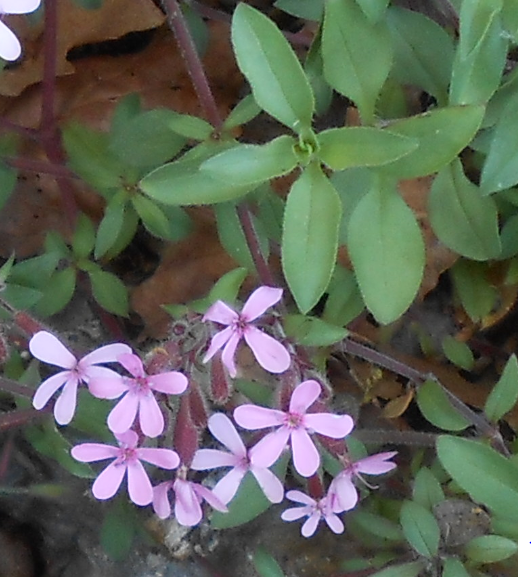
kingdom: Plantae
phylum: Tracheophyta
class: Magnoliopsida
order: Caryophyllales
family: Caryophyllaceae
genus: Saponaria
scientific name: Saponaria ocymoides
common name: Rock soapwort
